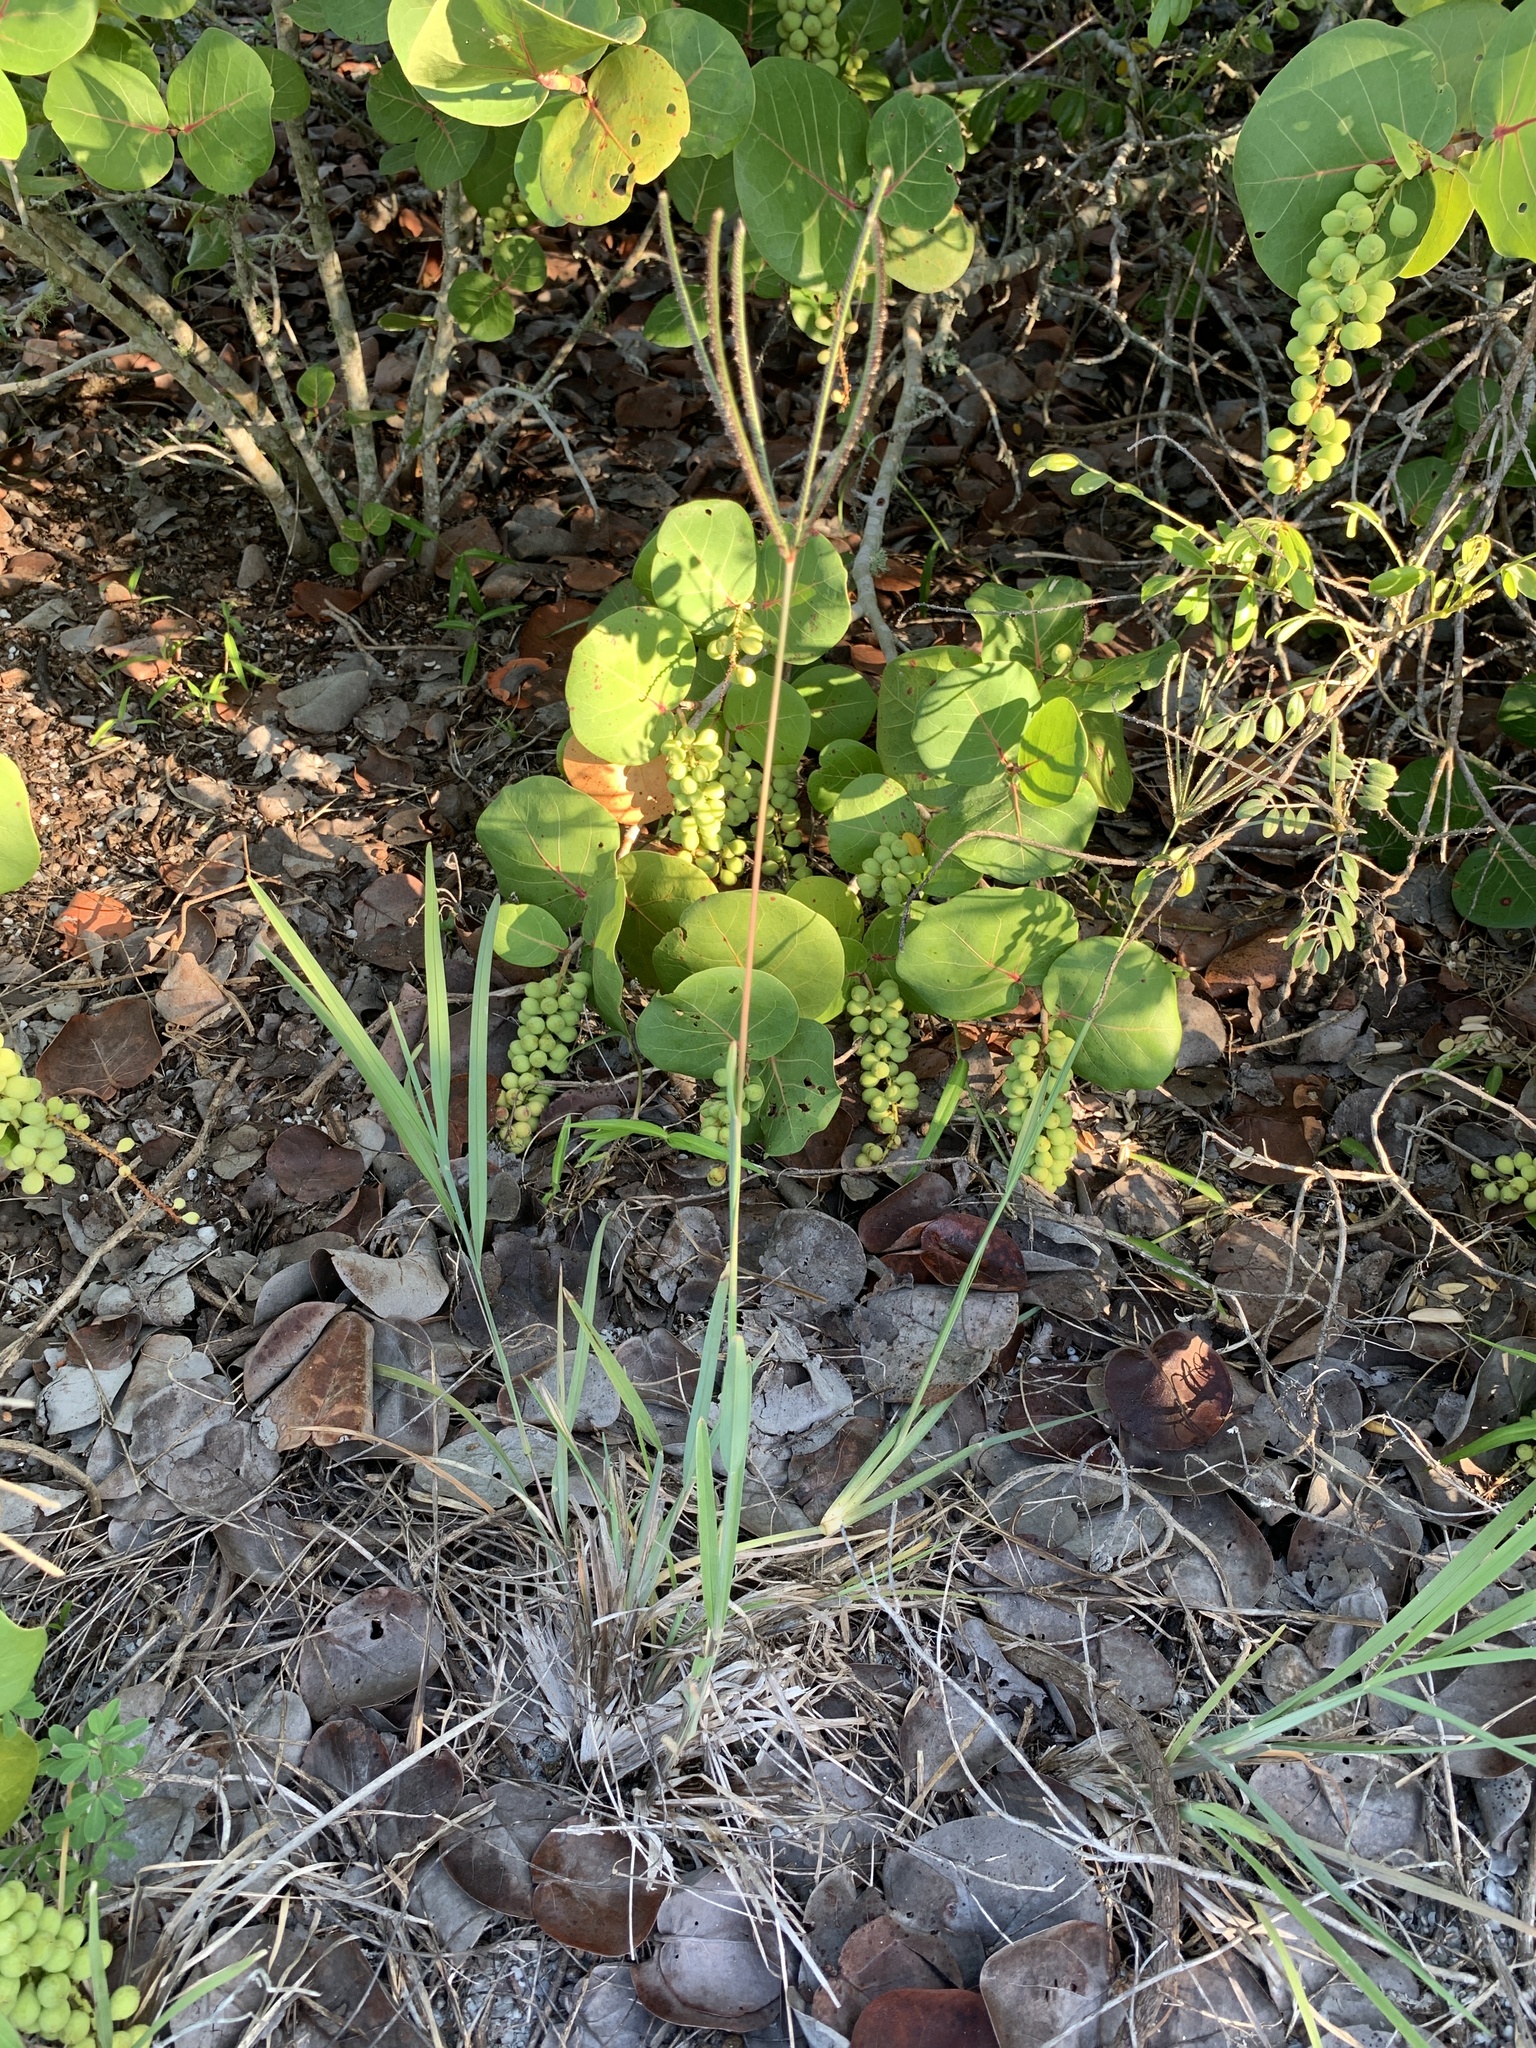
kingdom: Plantae
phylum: Tracheophyta
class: Liliopsida
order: Poales
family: Poaceae
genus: Eustachys
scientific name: Eustachys petraea
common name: Pinewoods fingergrass
